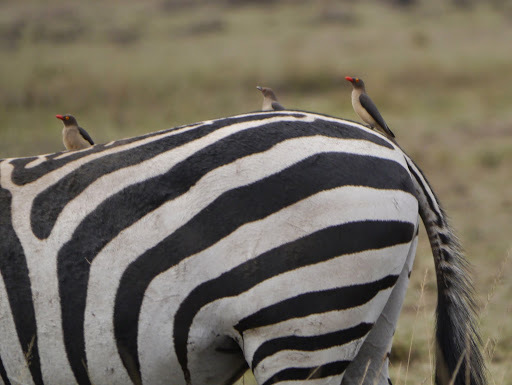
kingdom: Animalia
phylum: Chordata
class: Aves
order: Passeriformes
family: Buphagidae
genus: Buphagus
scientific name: Buphagus erythrorhynchus
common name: Red-billed oxpecker
